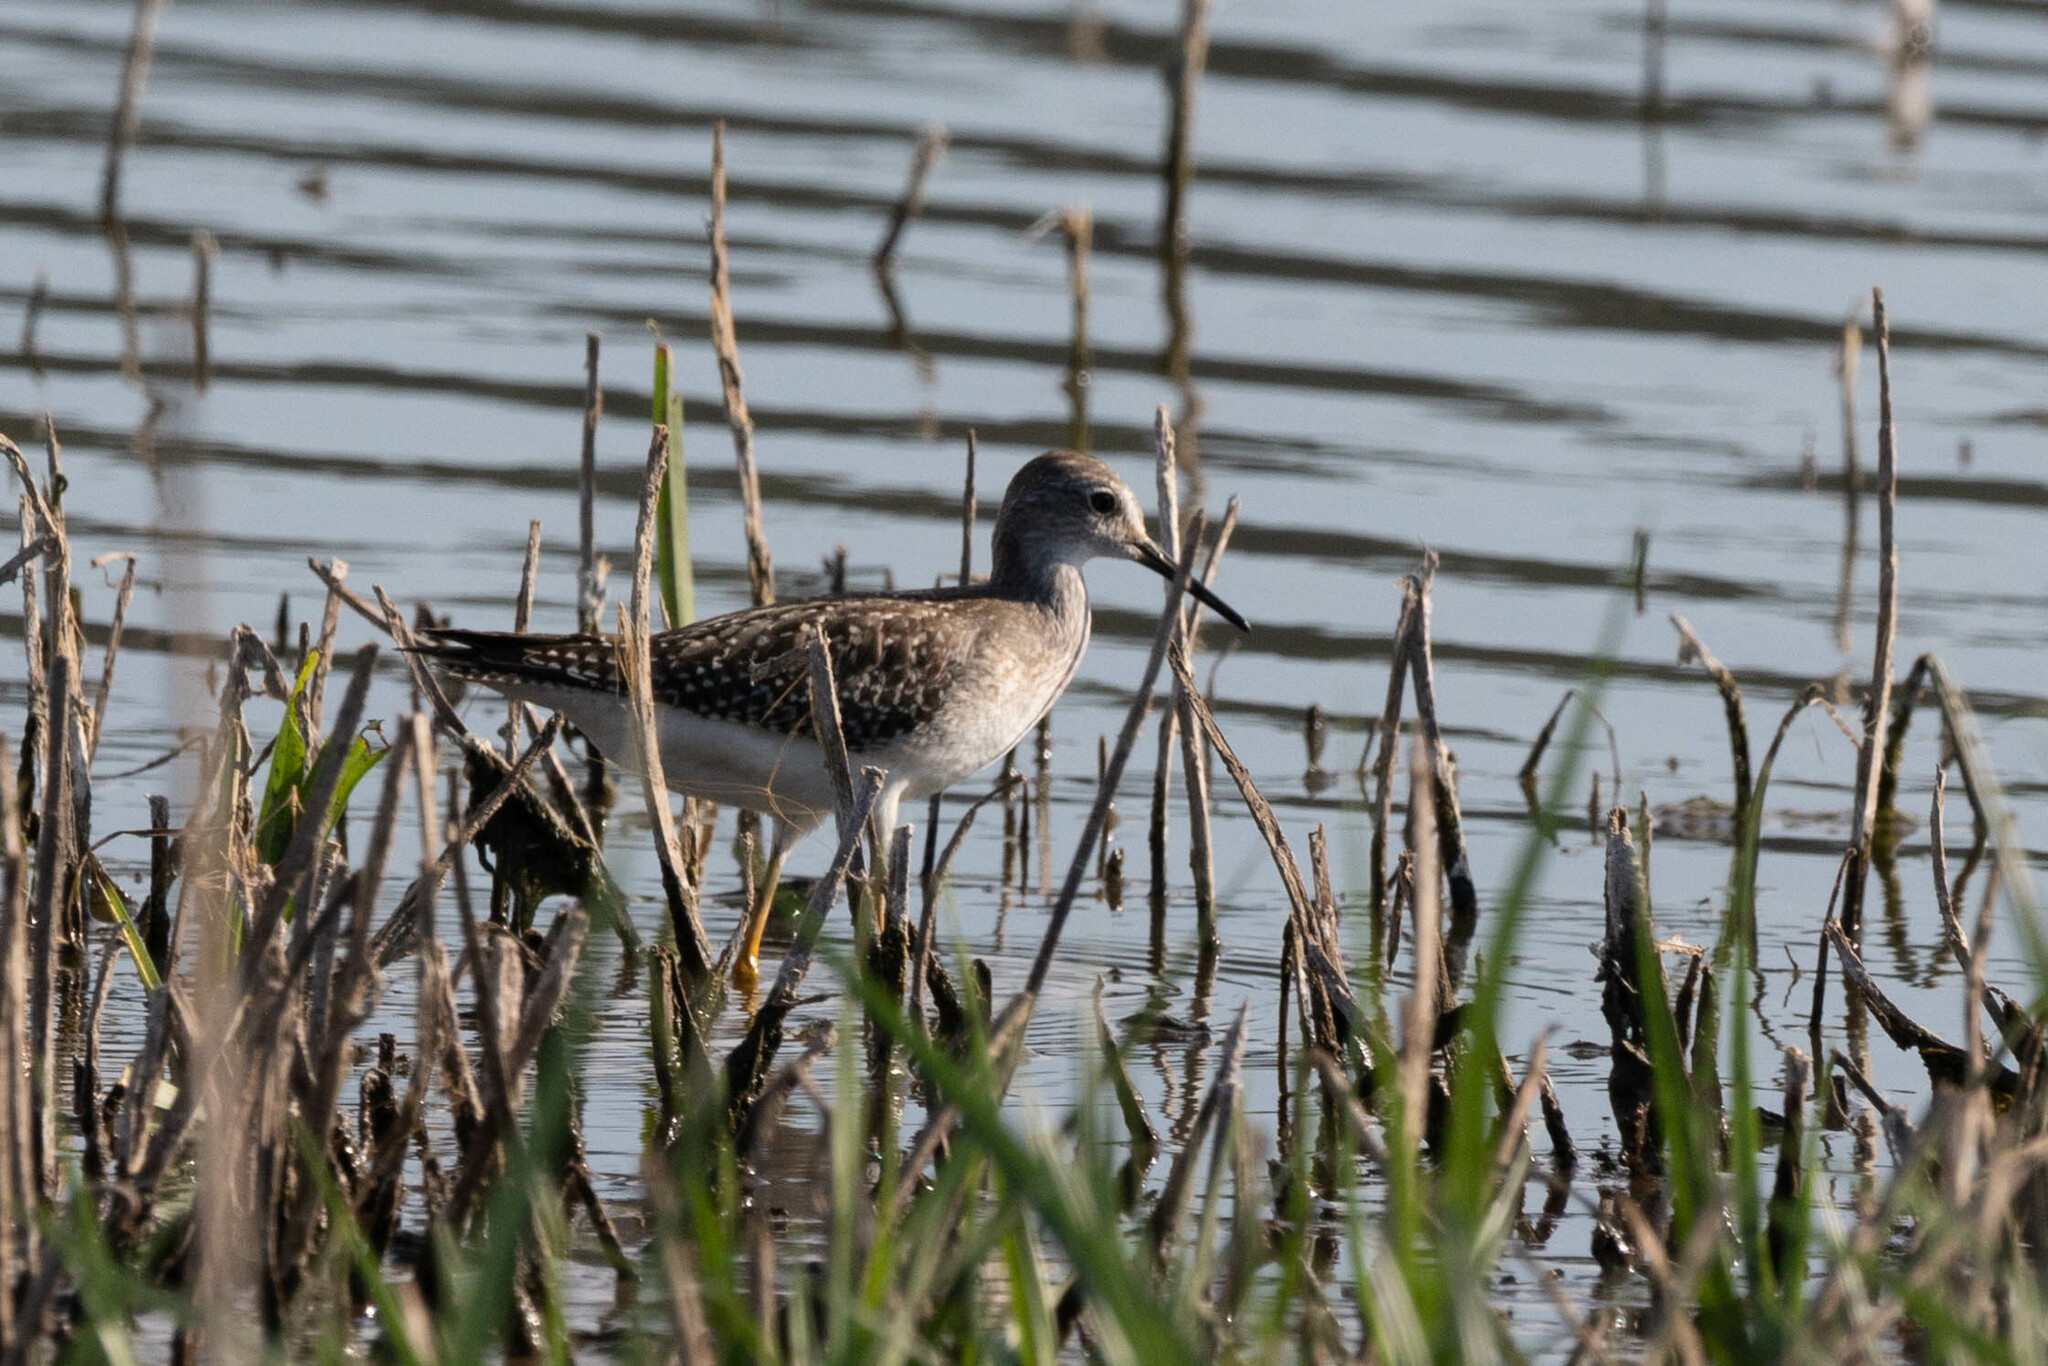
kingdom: Animalia
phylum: Chordata
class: Aves
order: Charadriiformes
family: Scolopacidae
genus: Tringa
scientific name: Tringa flavipes
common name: Lesser yellowlegs
